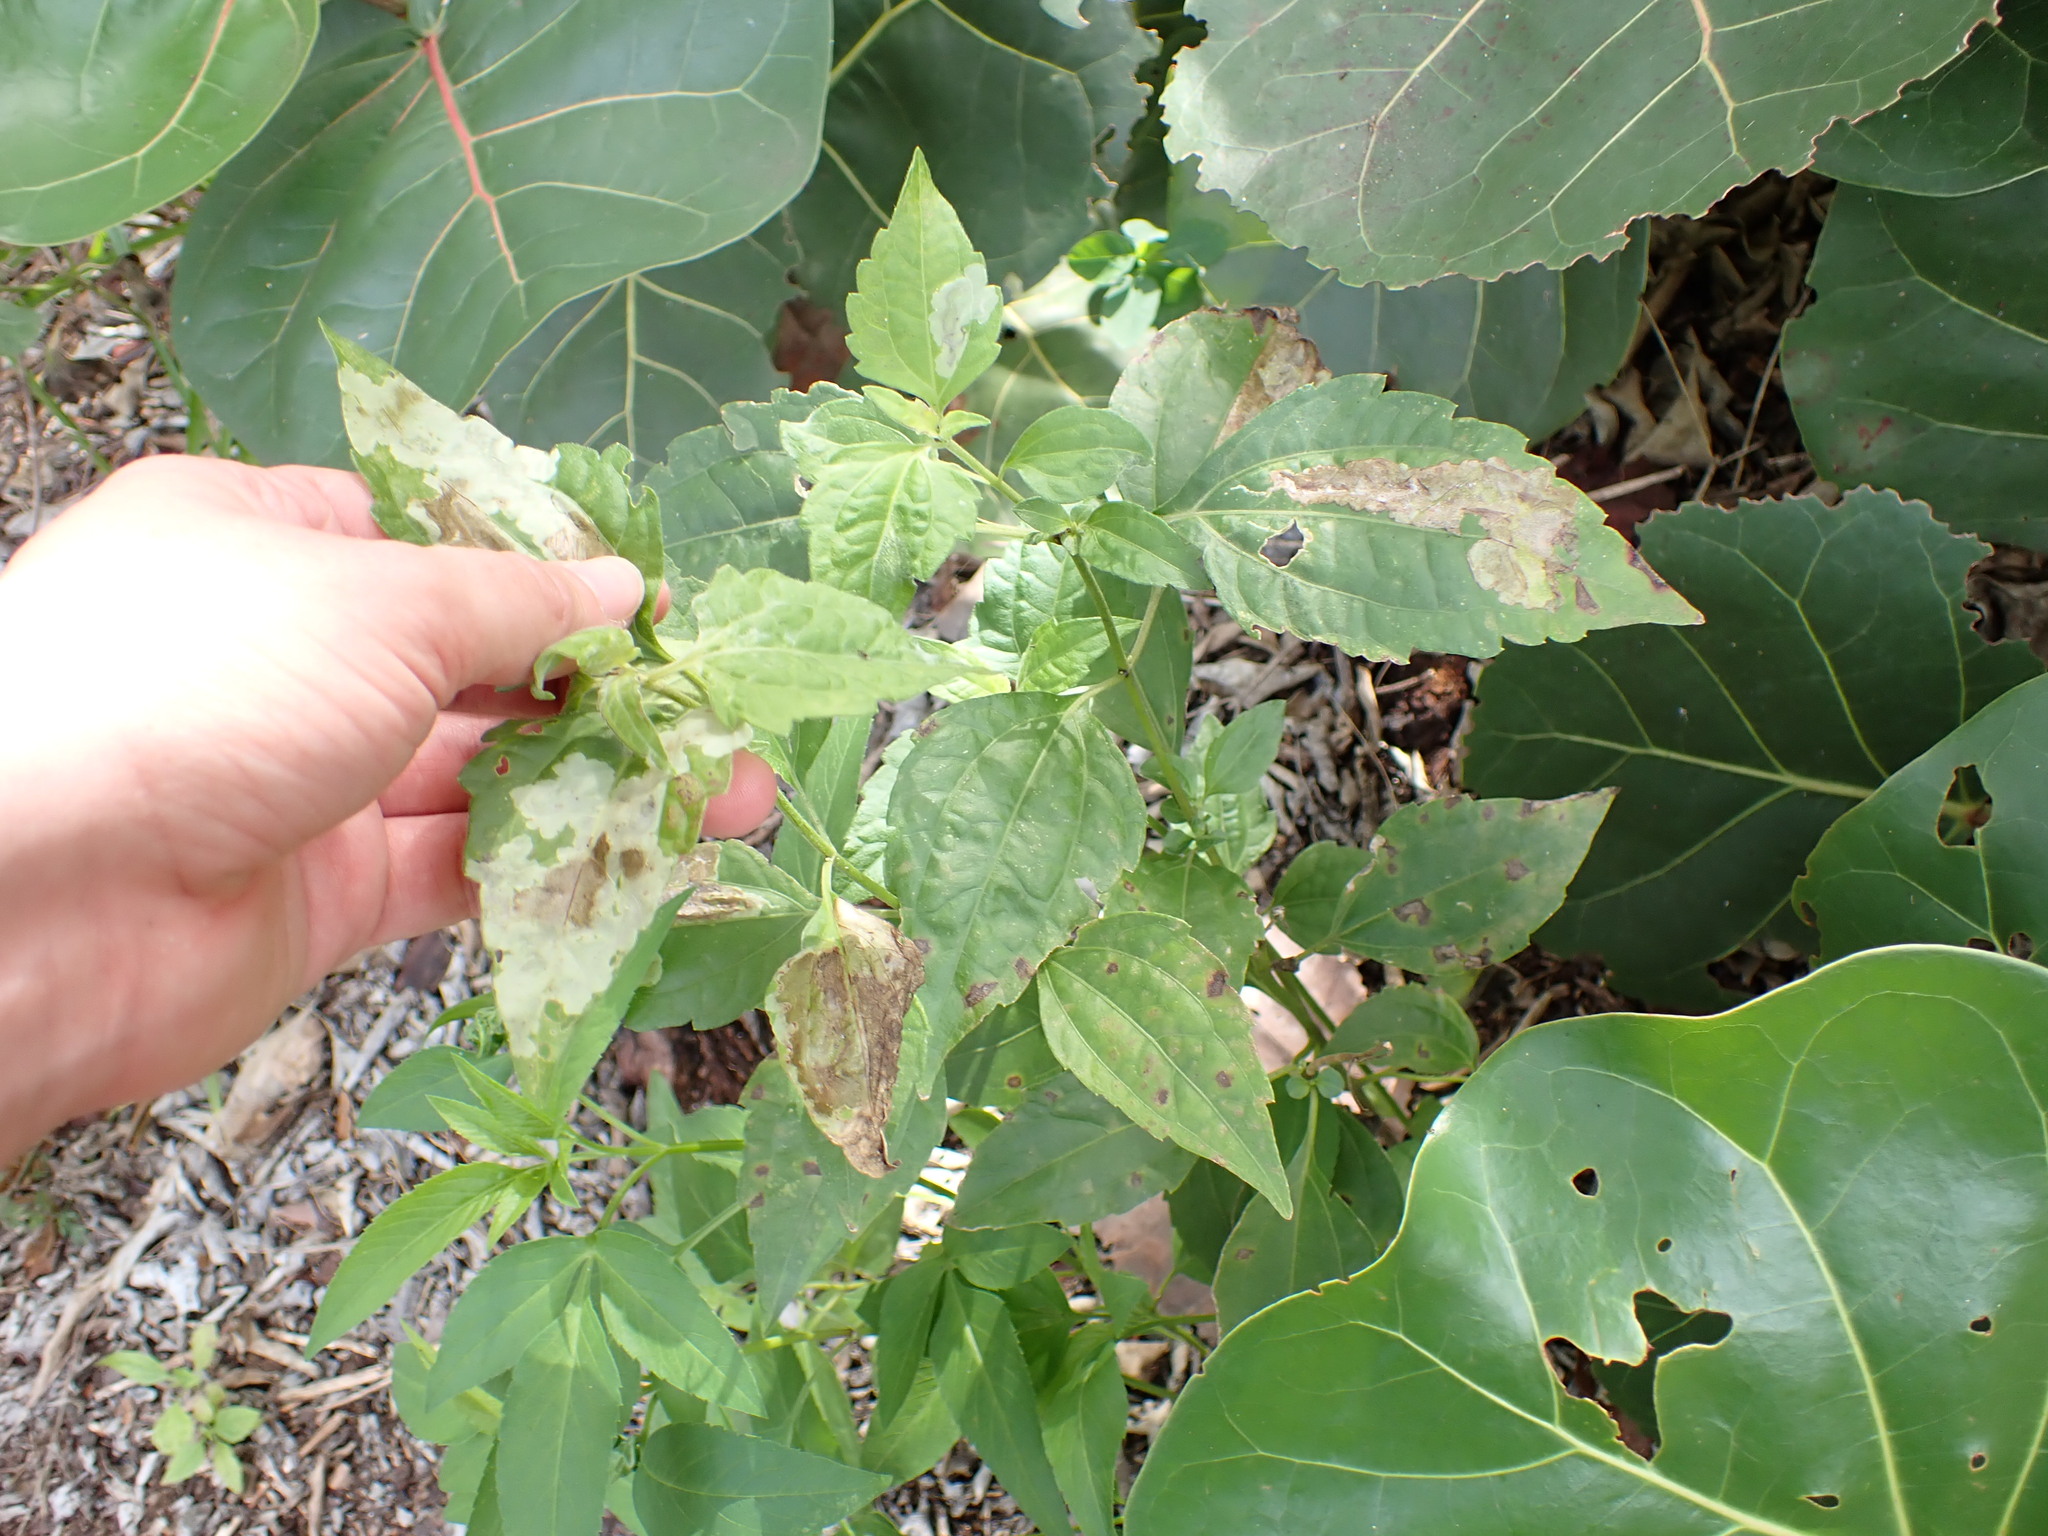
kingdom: Animalia
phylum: Arthropoda
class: Insecta
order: Diptera
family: Agromyzidae
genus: Calycomyza
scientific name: Calycomyza eupatorivora
